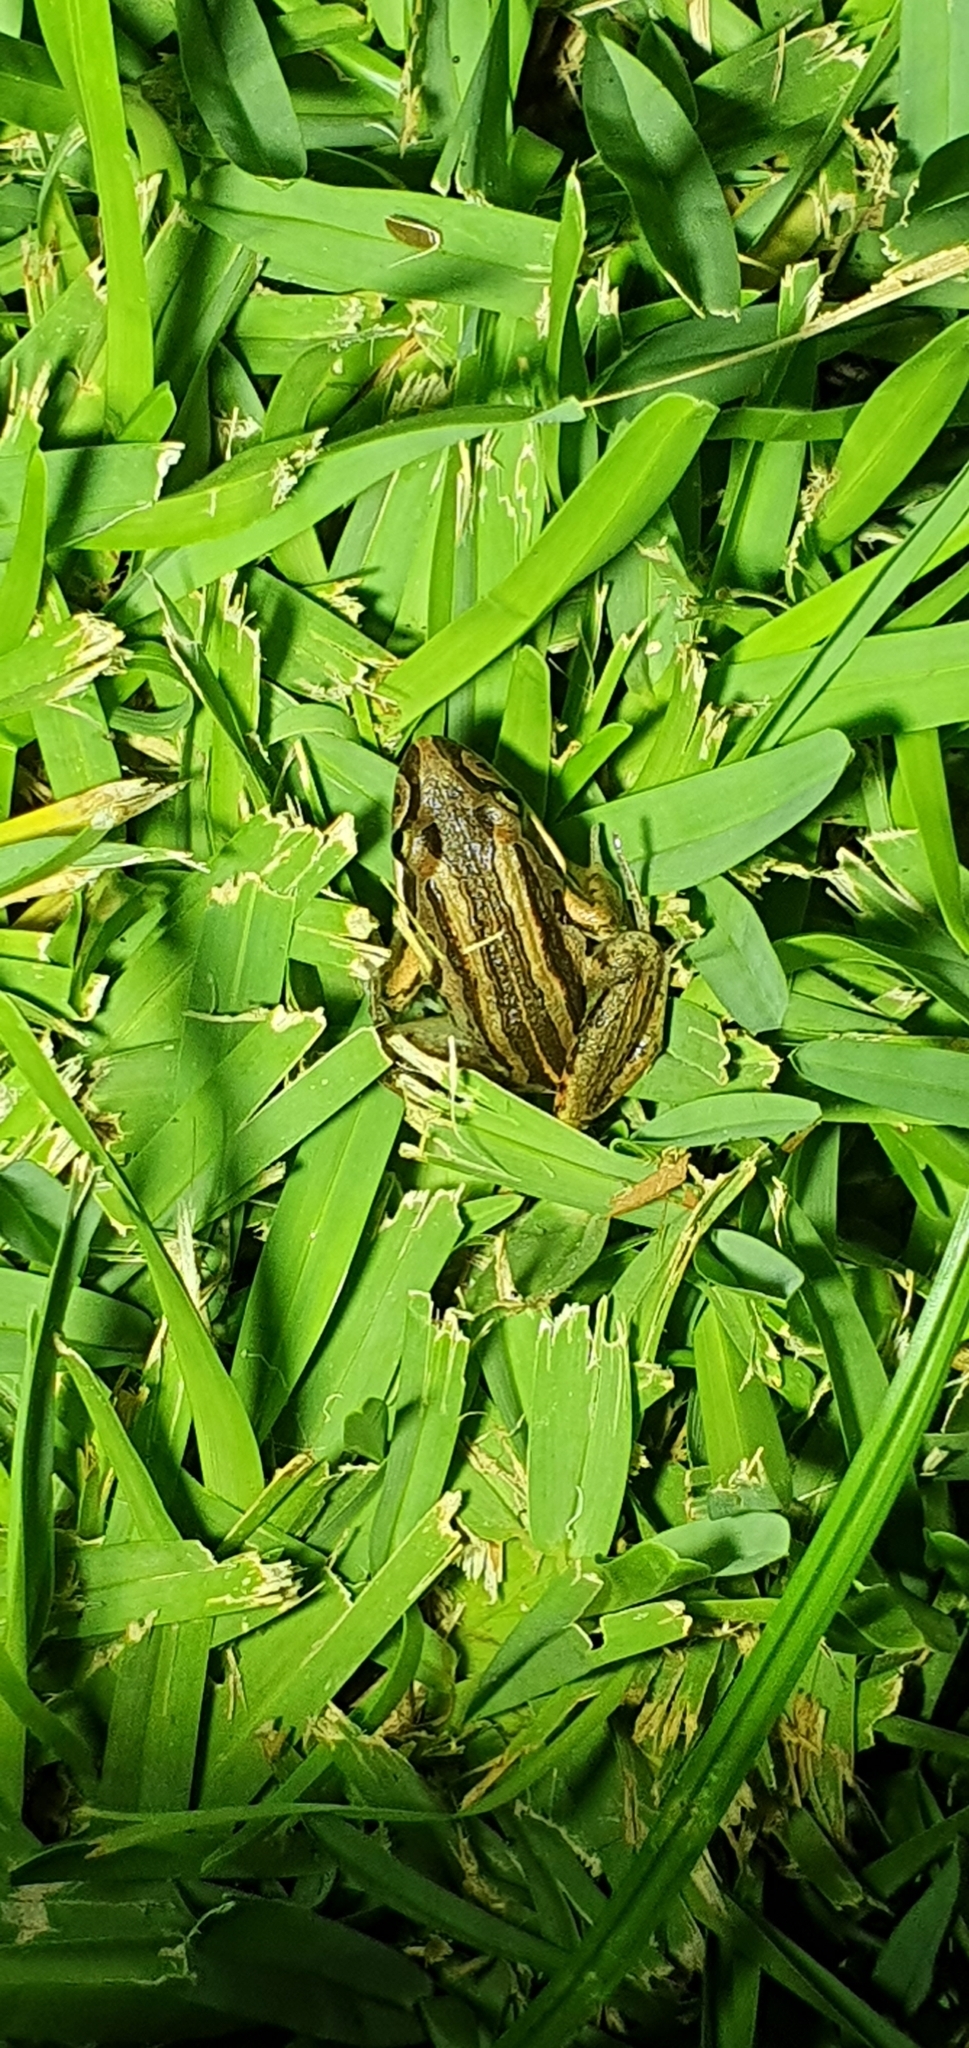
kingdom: Animalia
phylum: Chordata
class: Amphibia
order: Anura
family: Limnodynastidae
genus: Limnodynastes
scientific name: Limnodynastes peronii
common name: Brown frog
